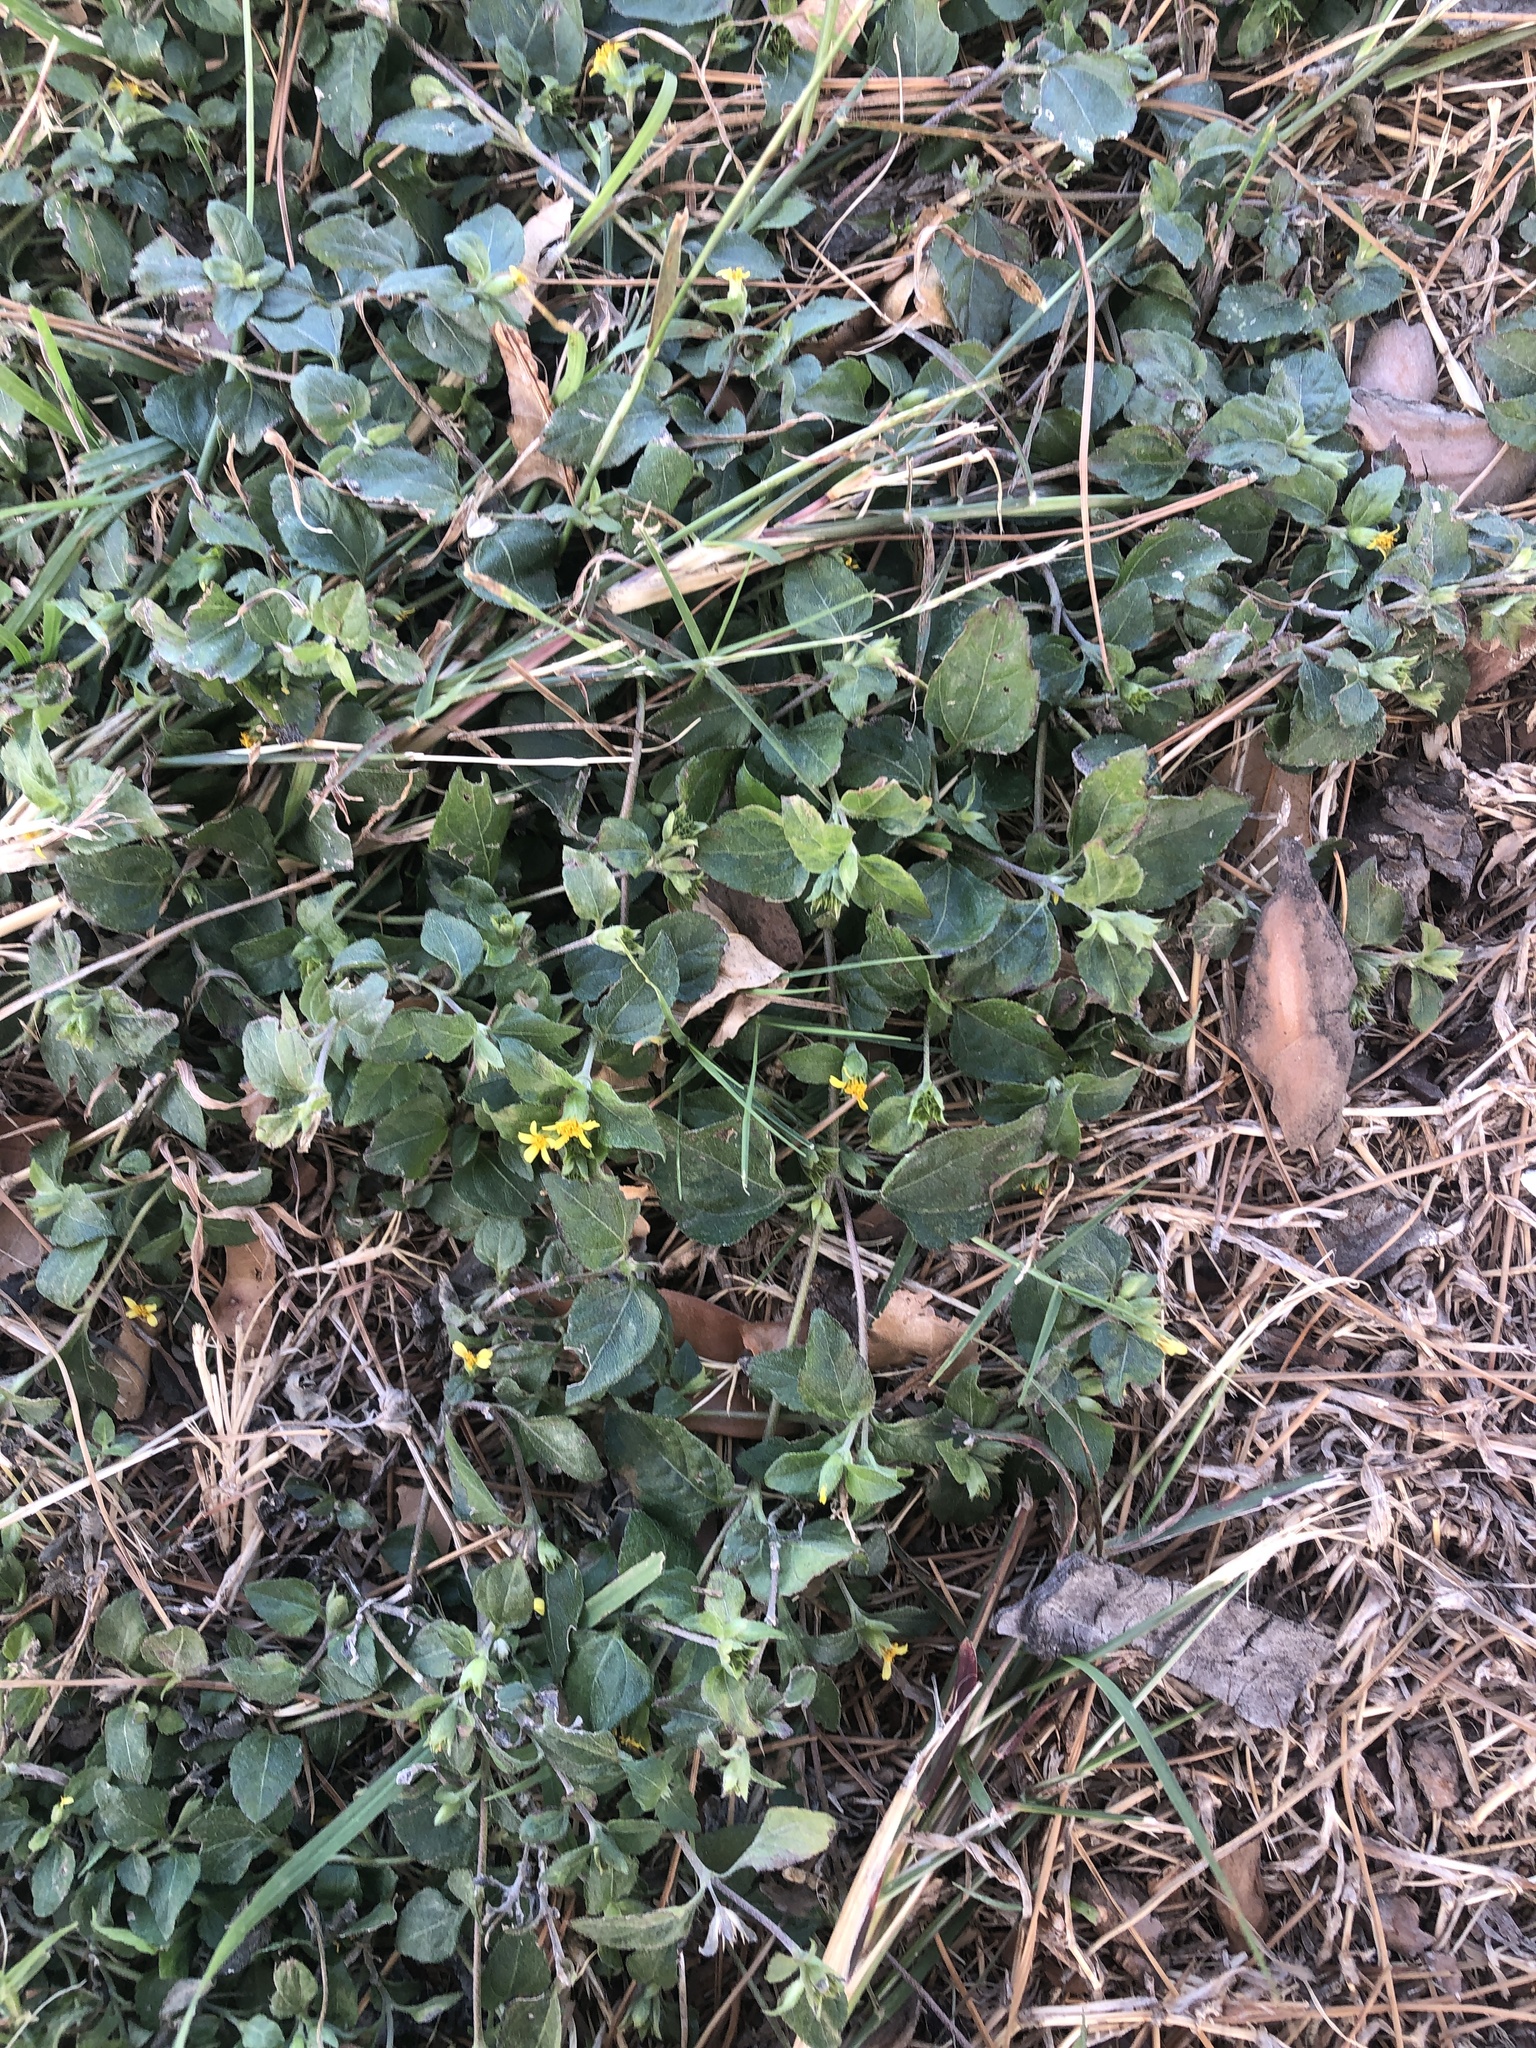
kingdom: Plantae
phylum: Tracheophyta
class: Magnoliopsida
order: Asterales
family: Asteraceae
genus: Calyptocarpus
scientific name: Calyptocarpus vialis
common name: Straggler daisy
